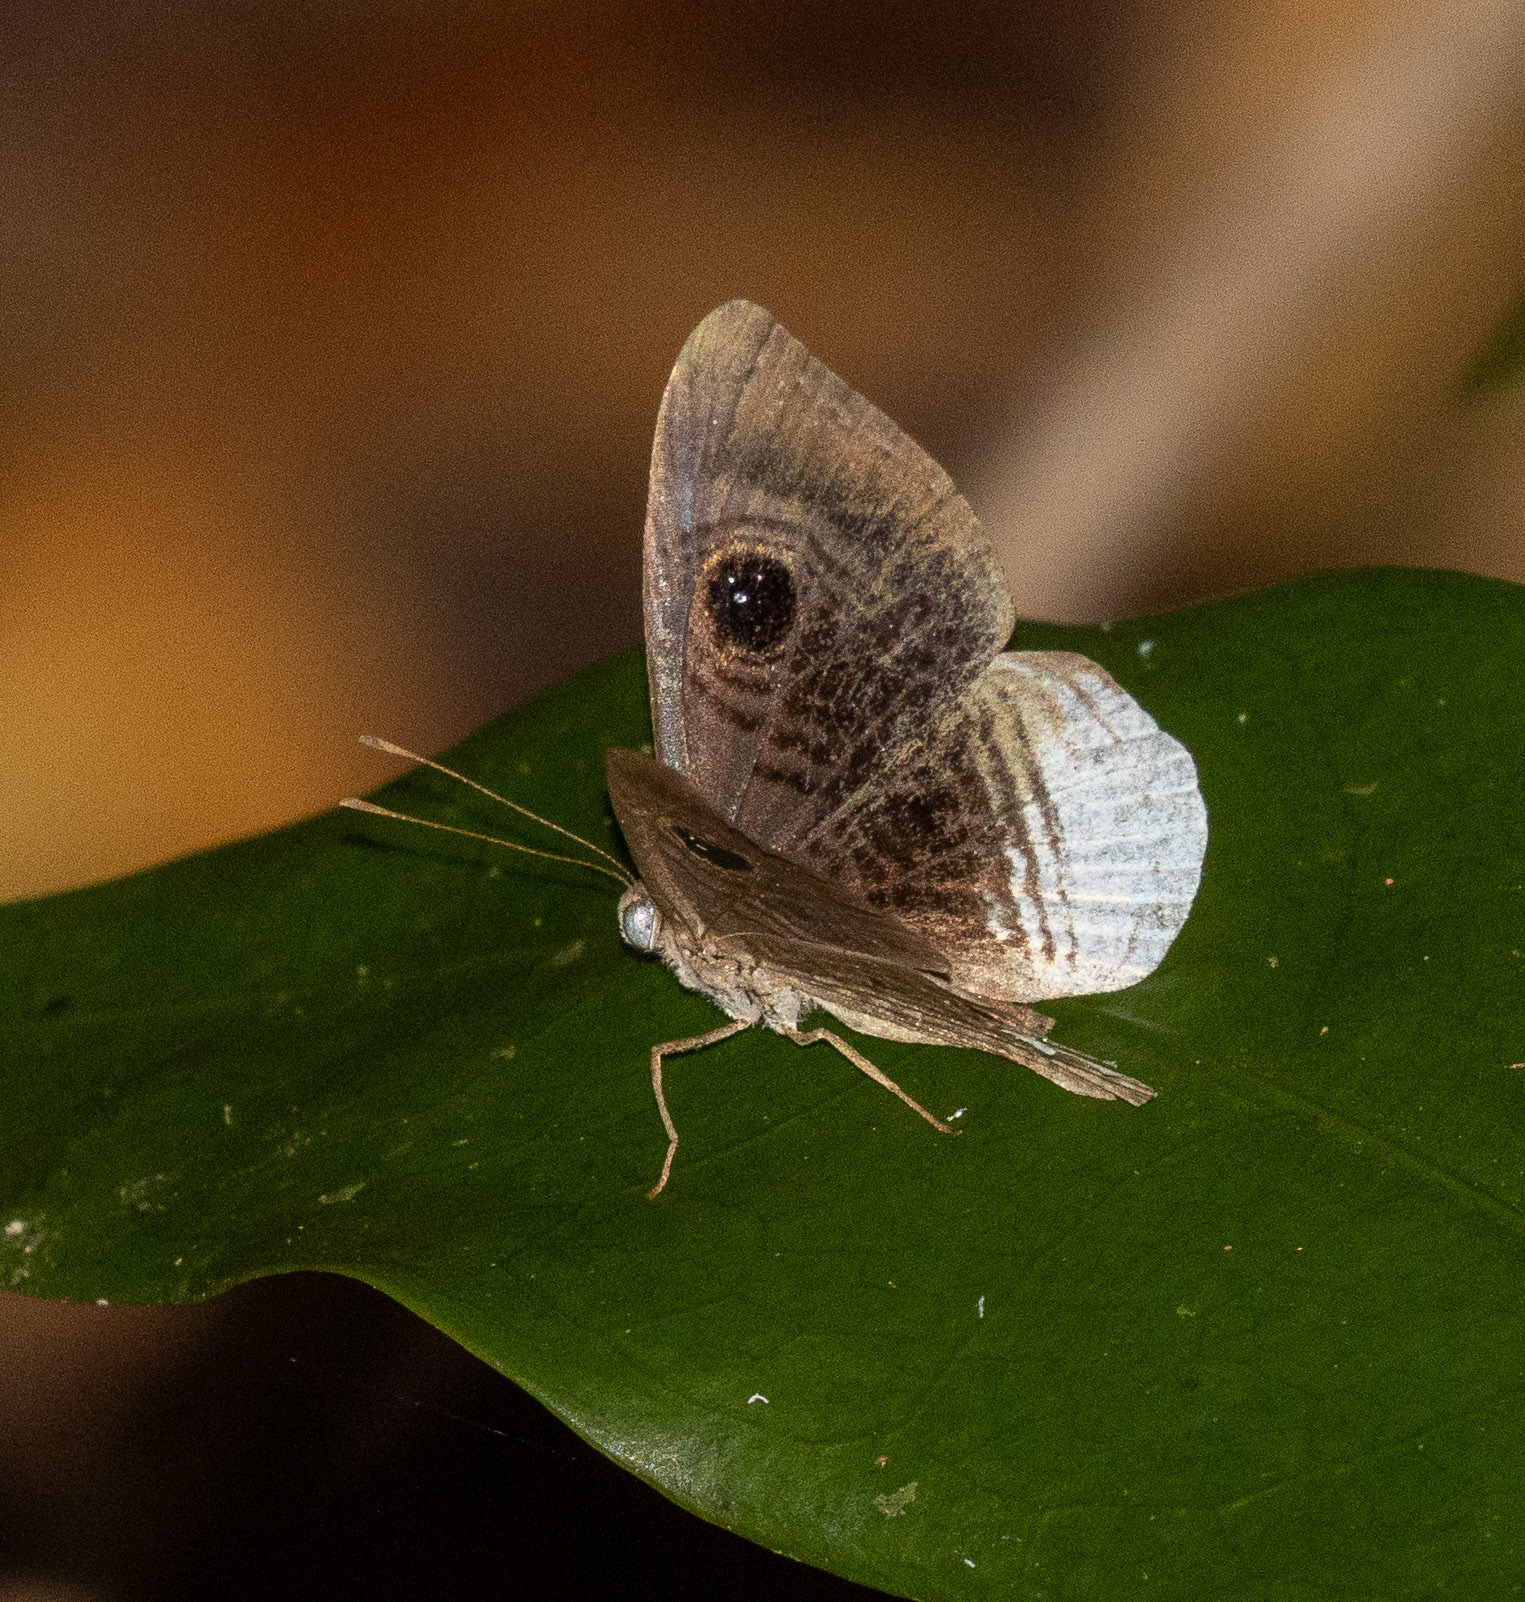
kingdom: Animalia
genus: Mesosemia
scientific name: Mesosemia nyctea
